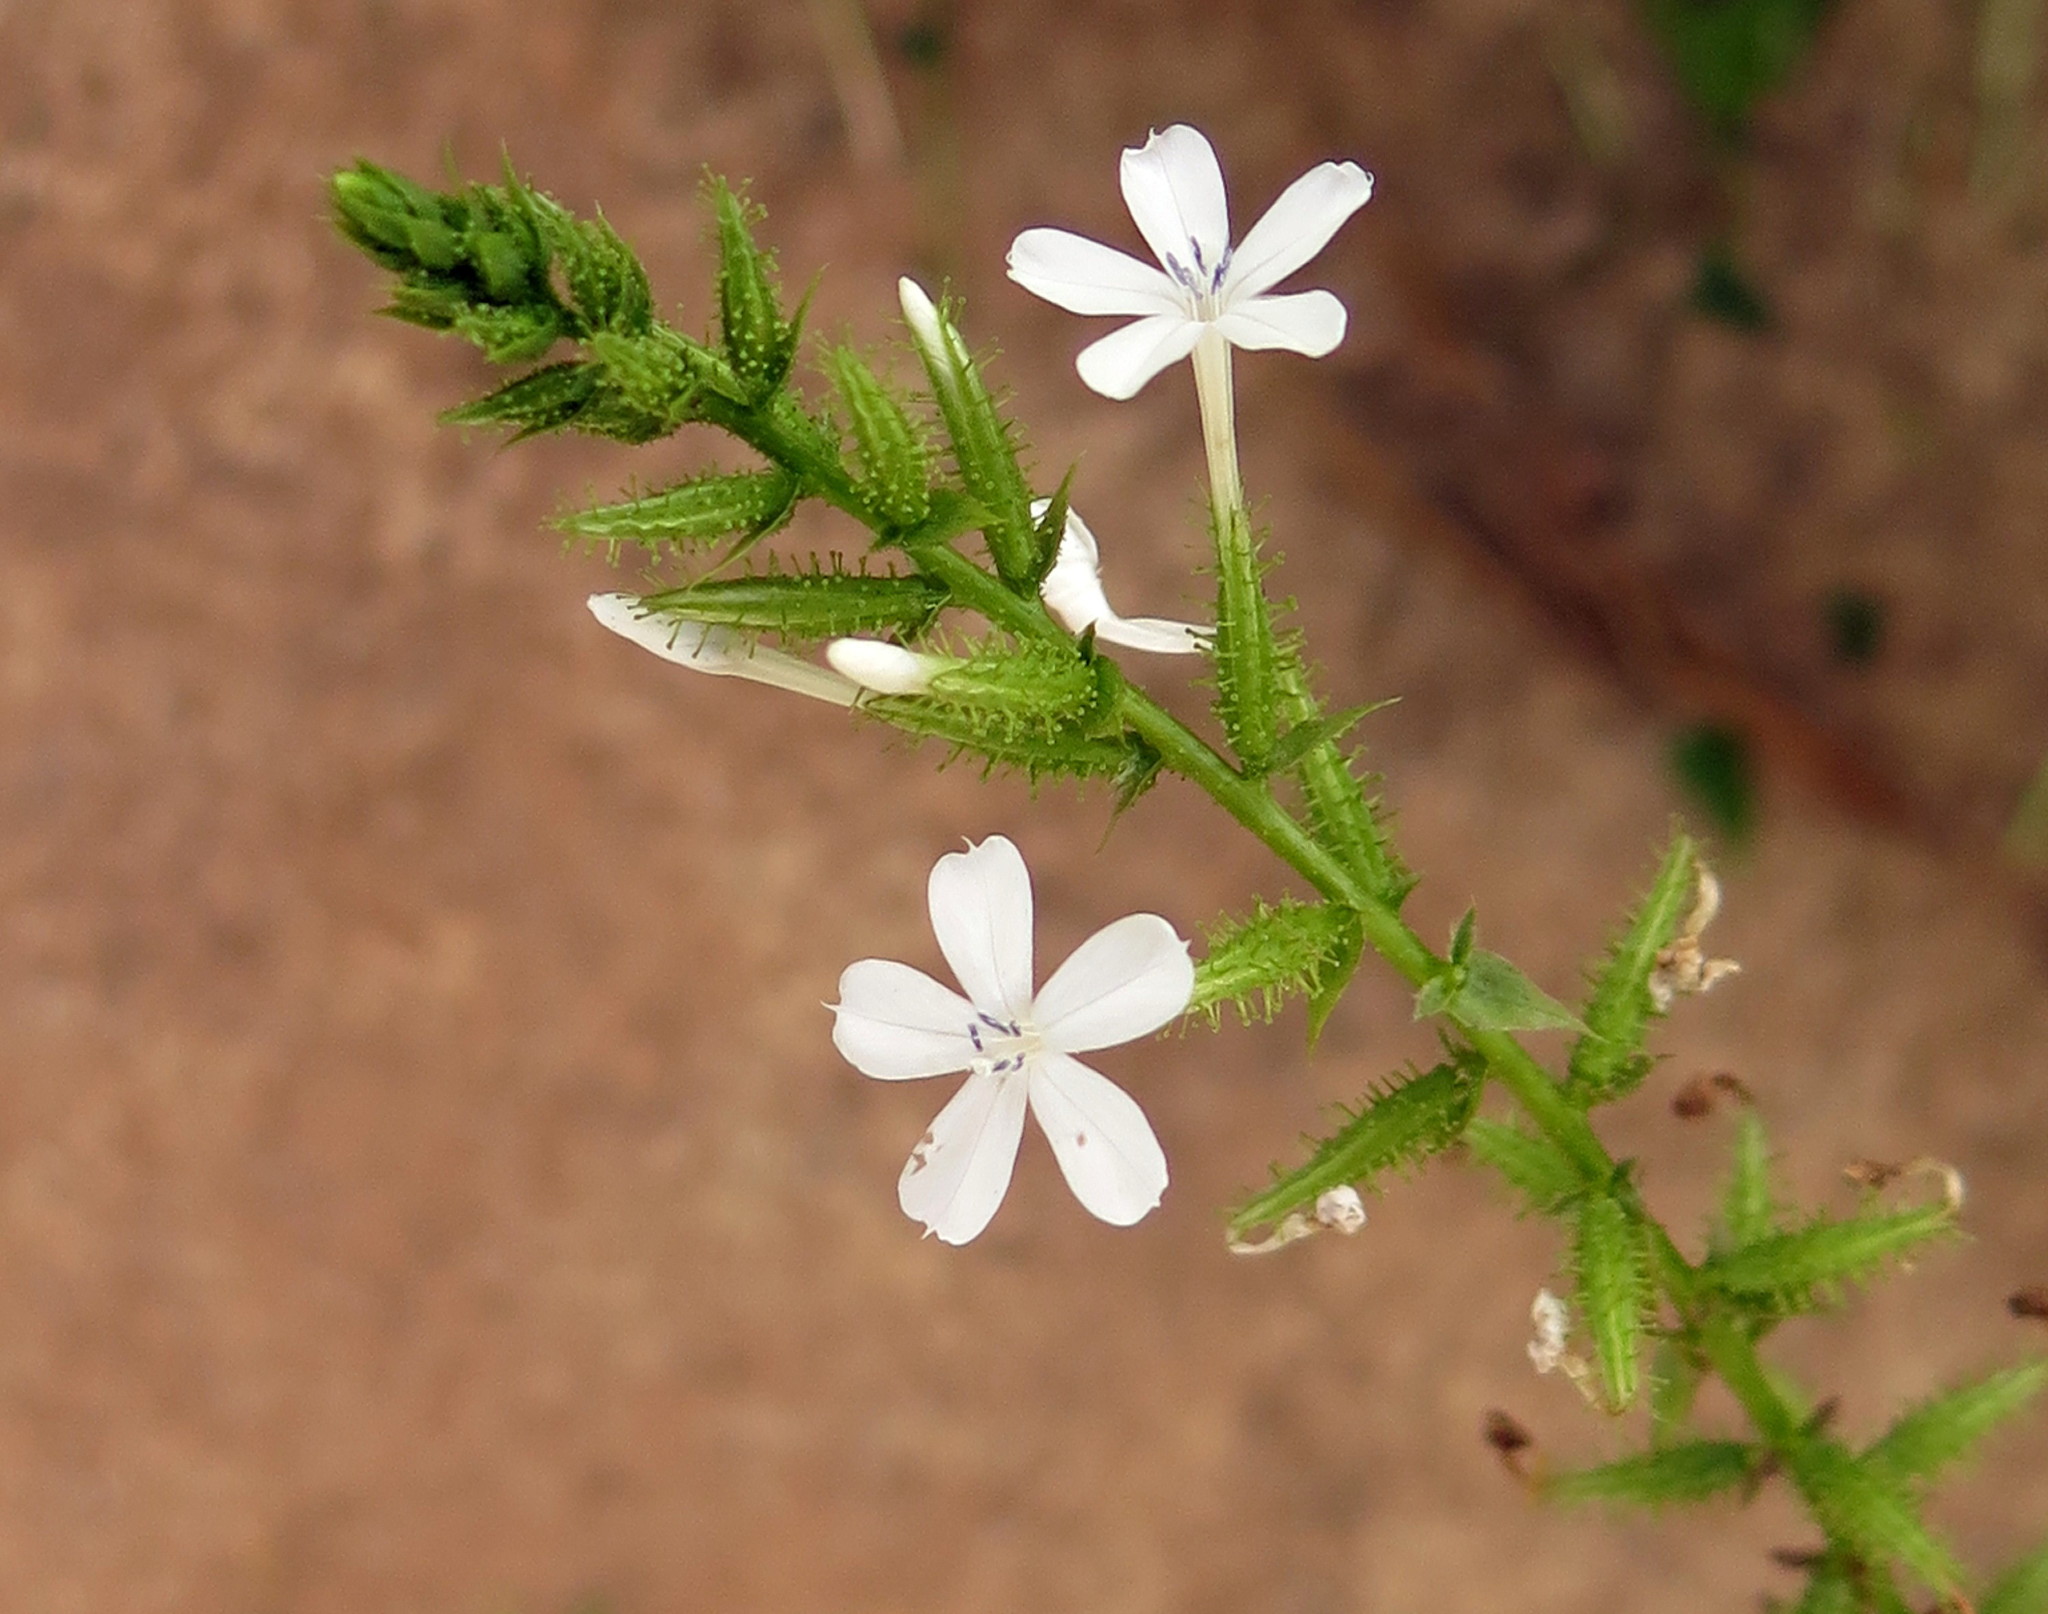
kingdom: Plantae
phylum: Tracheophyta
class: Magnoliopsida
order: Caryophyllales
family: Plumbaginaceae
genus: Plumbago
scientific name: Plumbago zeylanica
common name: Doctorbush
